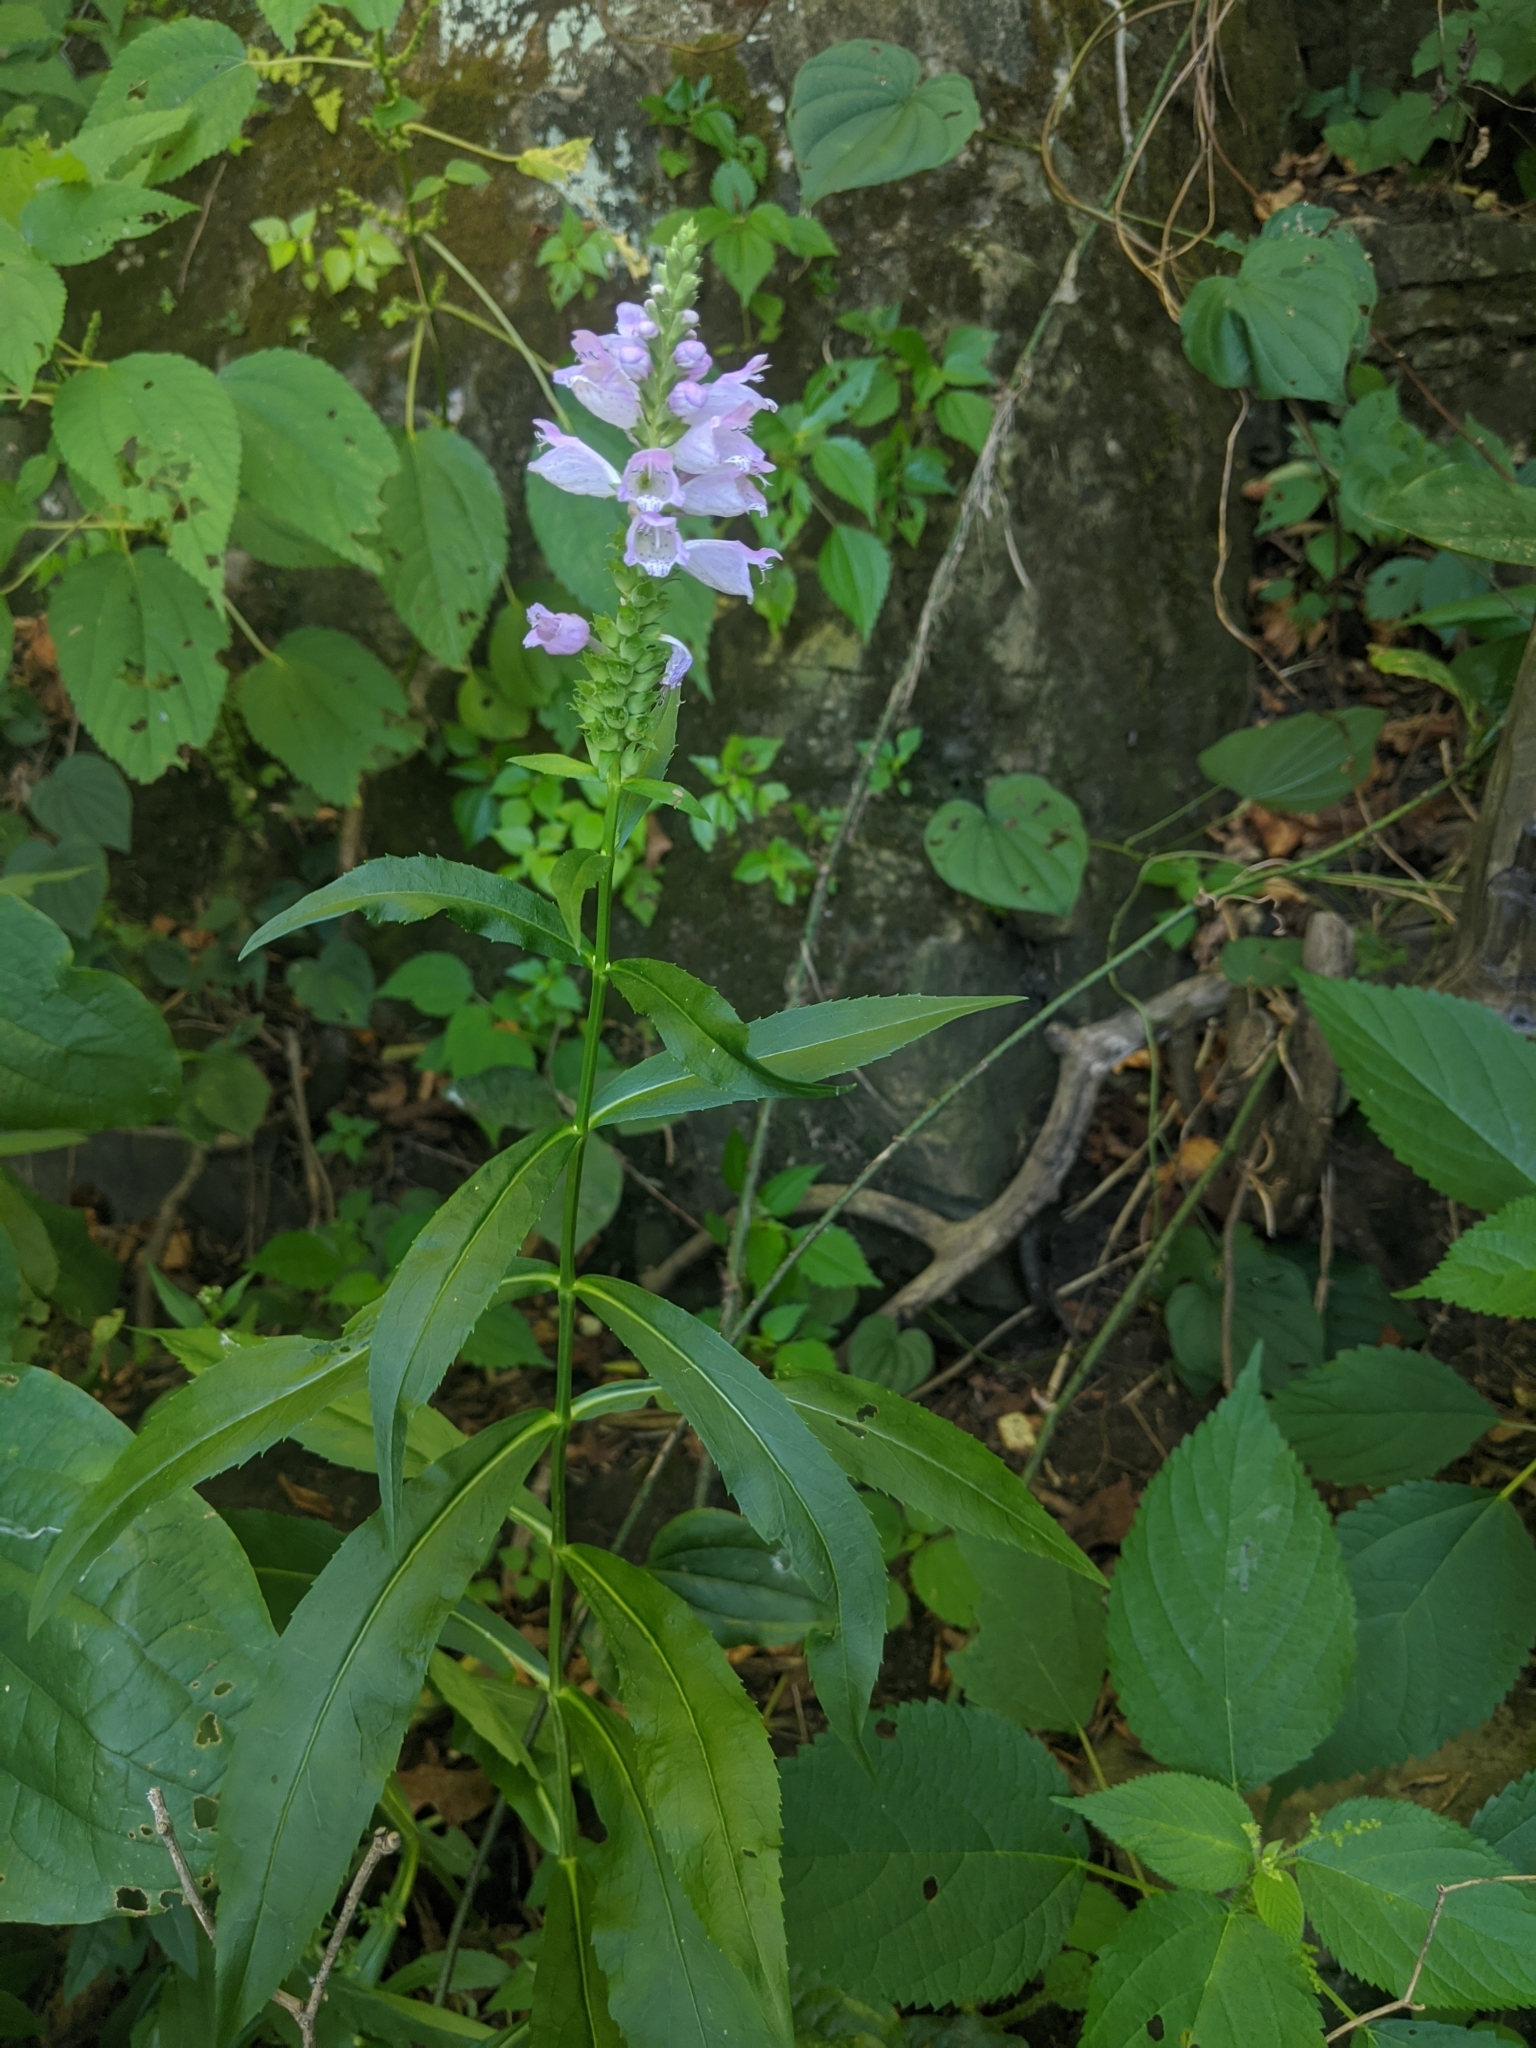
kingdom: Plantae
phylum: Tracheophyta
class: Magnoliopsida
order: Lamiales
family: Lamiaceae
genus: Physostegia
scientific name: Physostegia virginiana
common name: Obedient-plant
